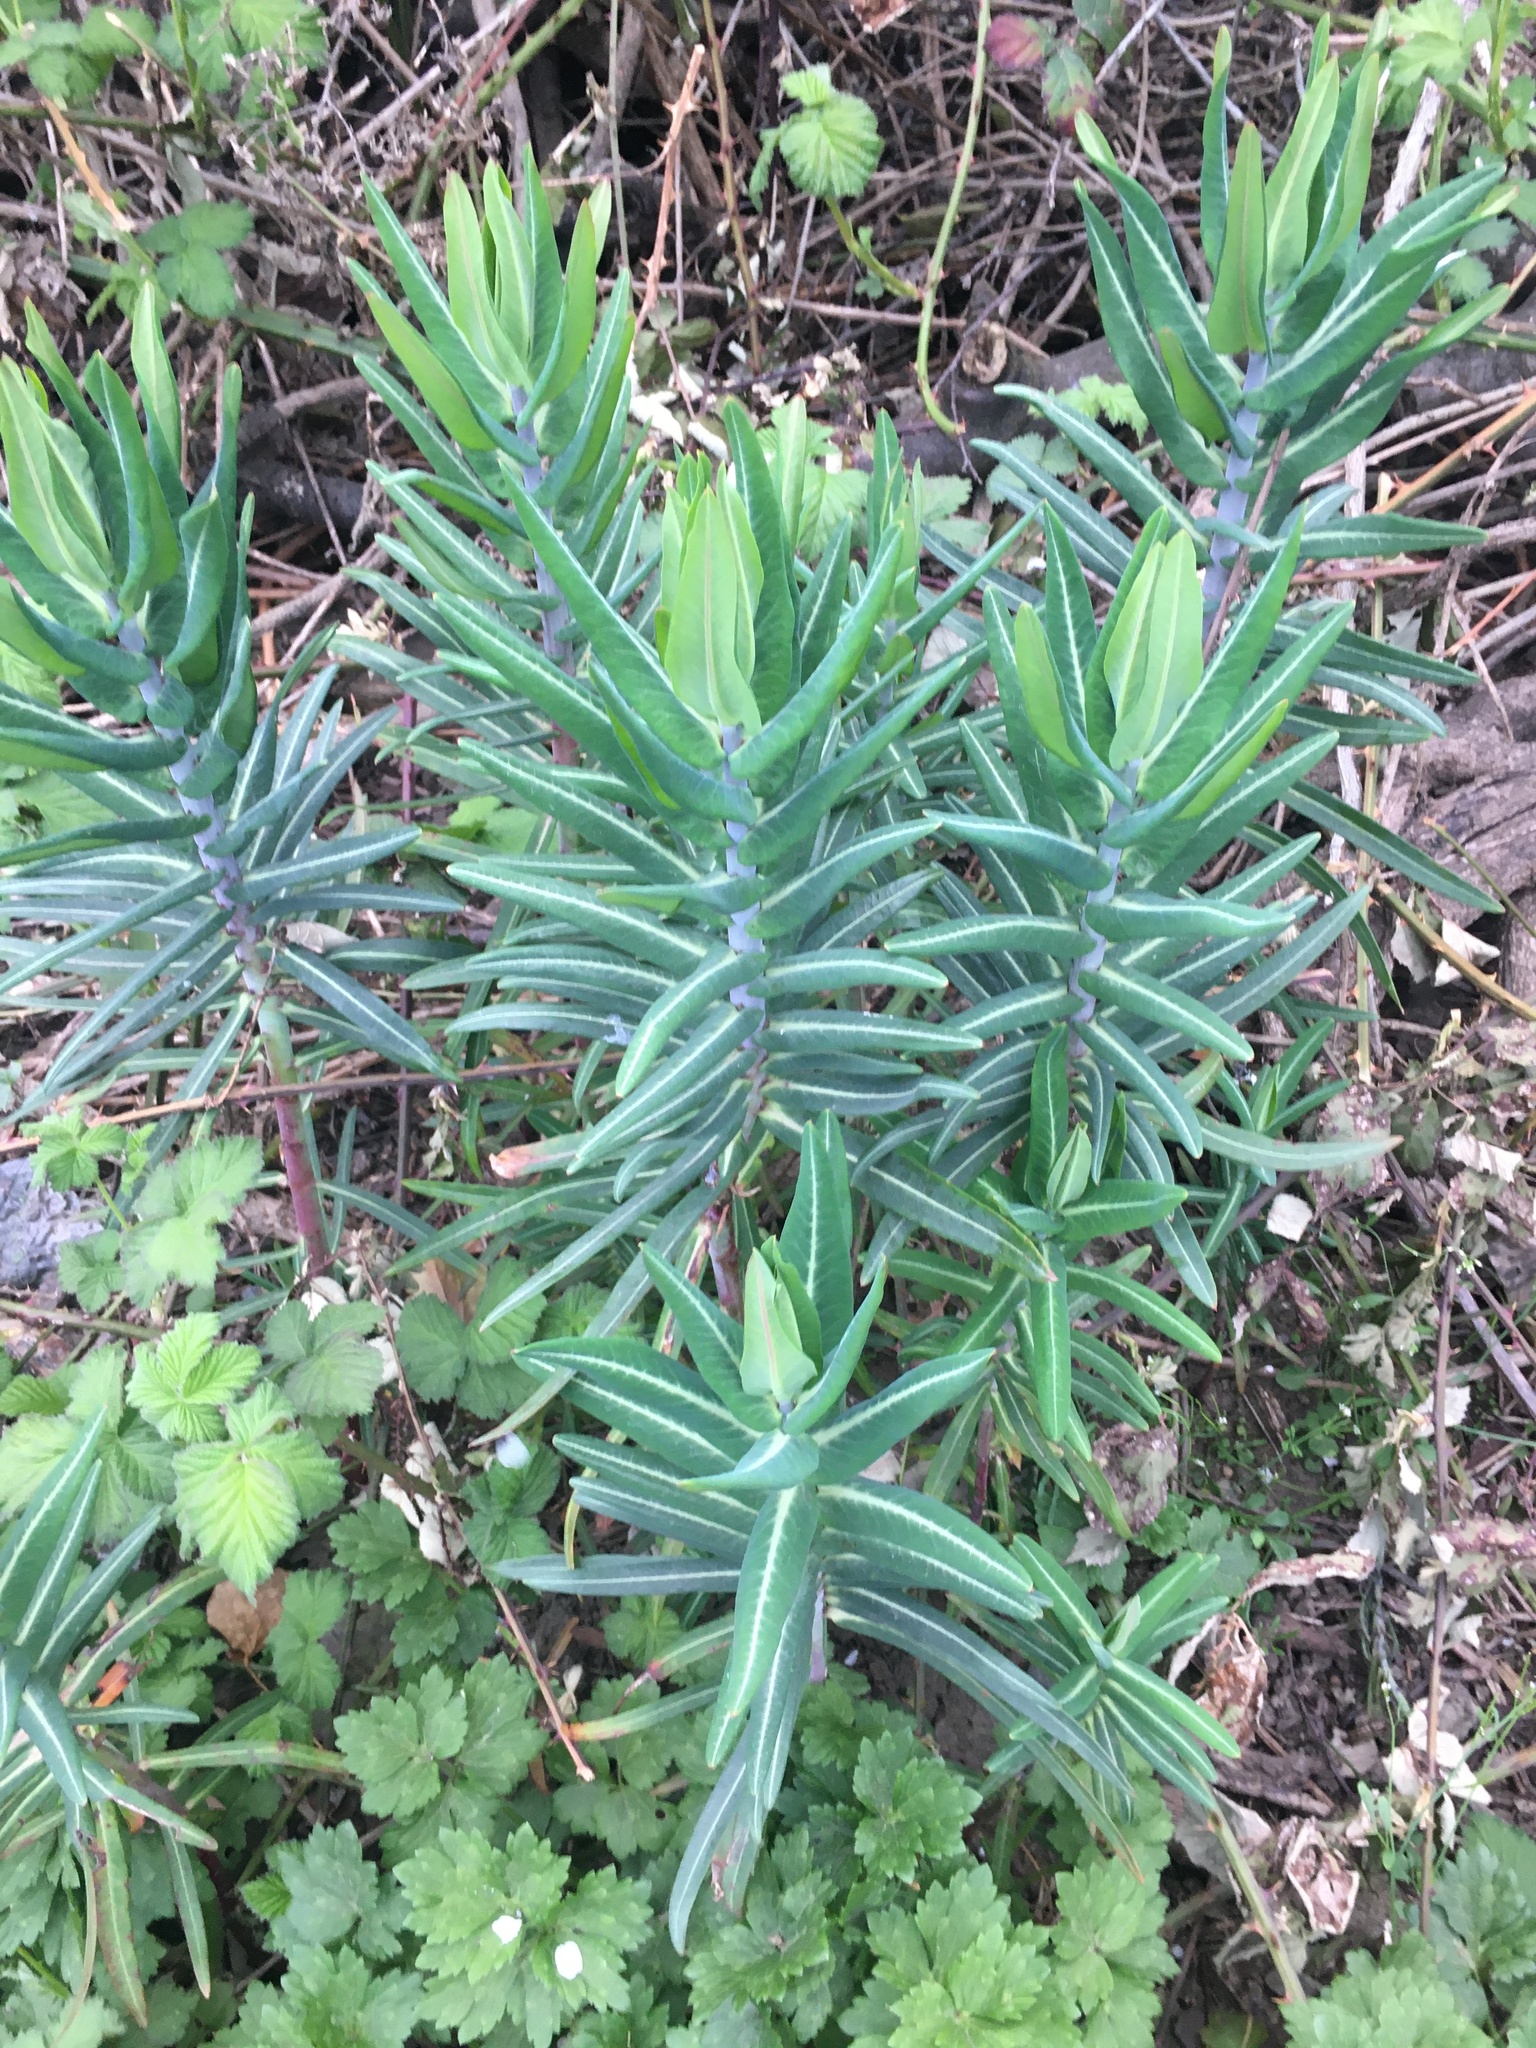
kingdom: Plantae
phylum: Tracheophyta
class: Magnoliopsida
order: Malpighiales
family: Euphorbiaceae
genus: Euphorbia
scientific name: Euphorbia lathyris
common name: Caper spurge
